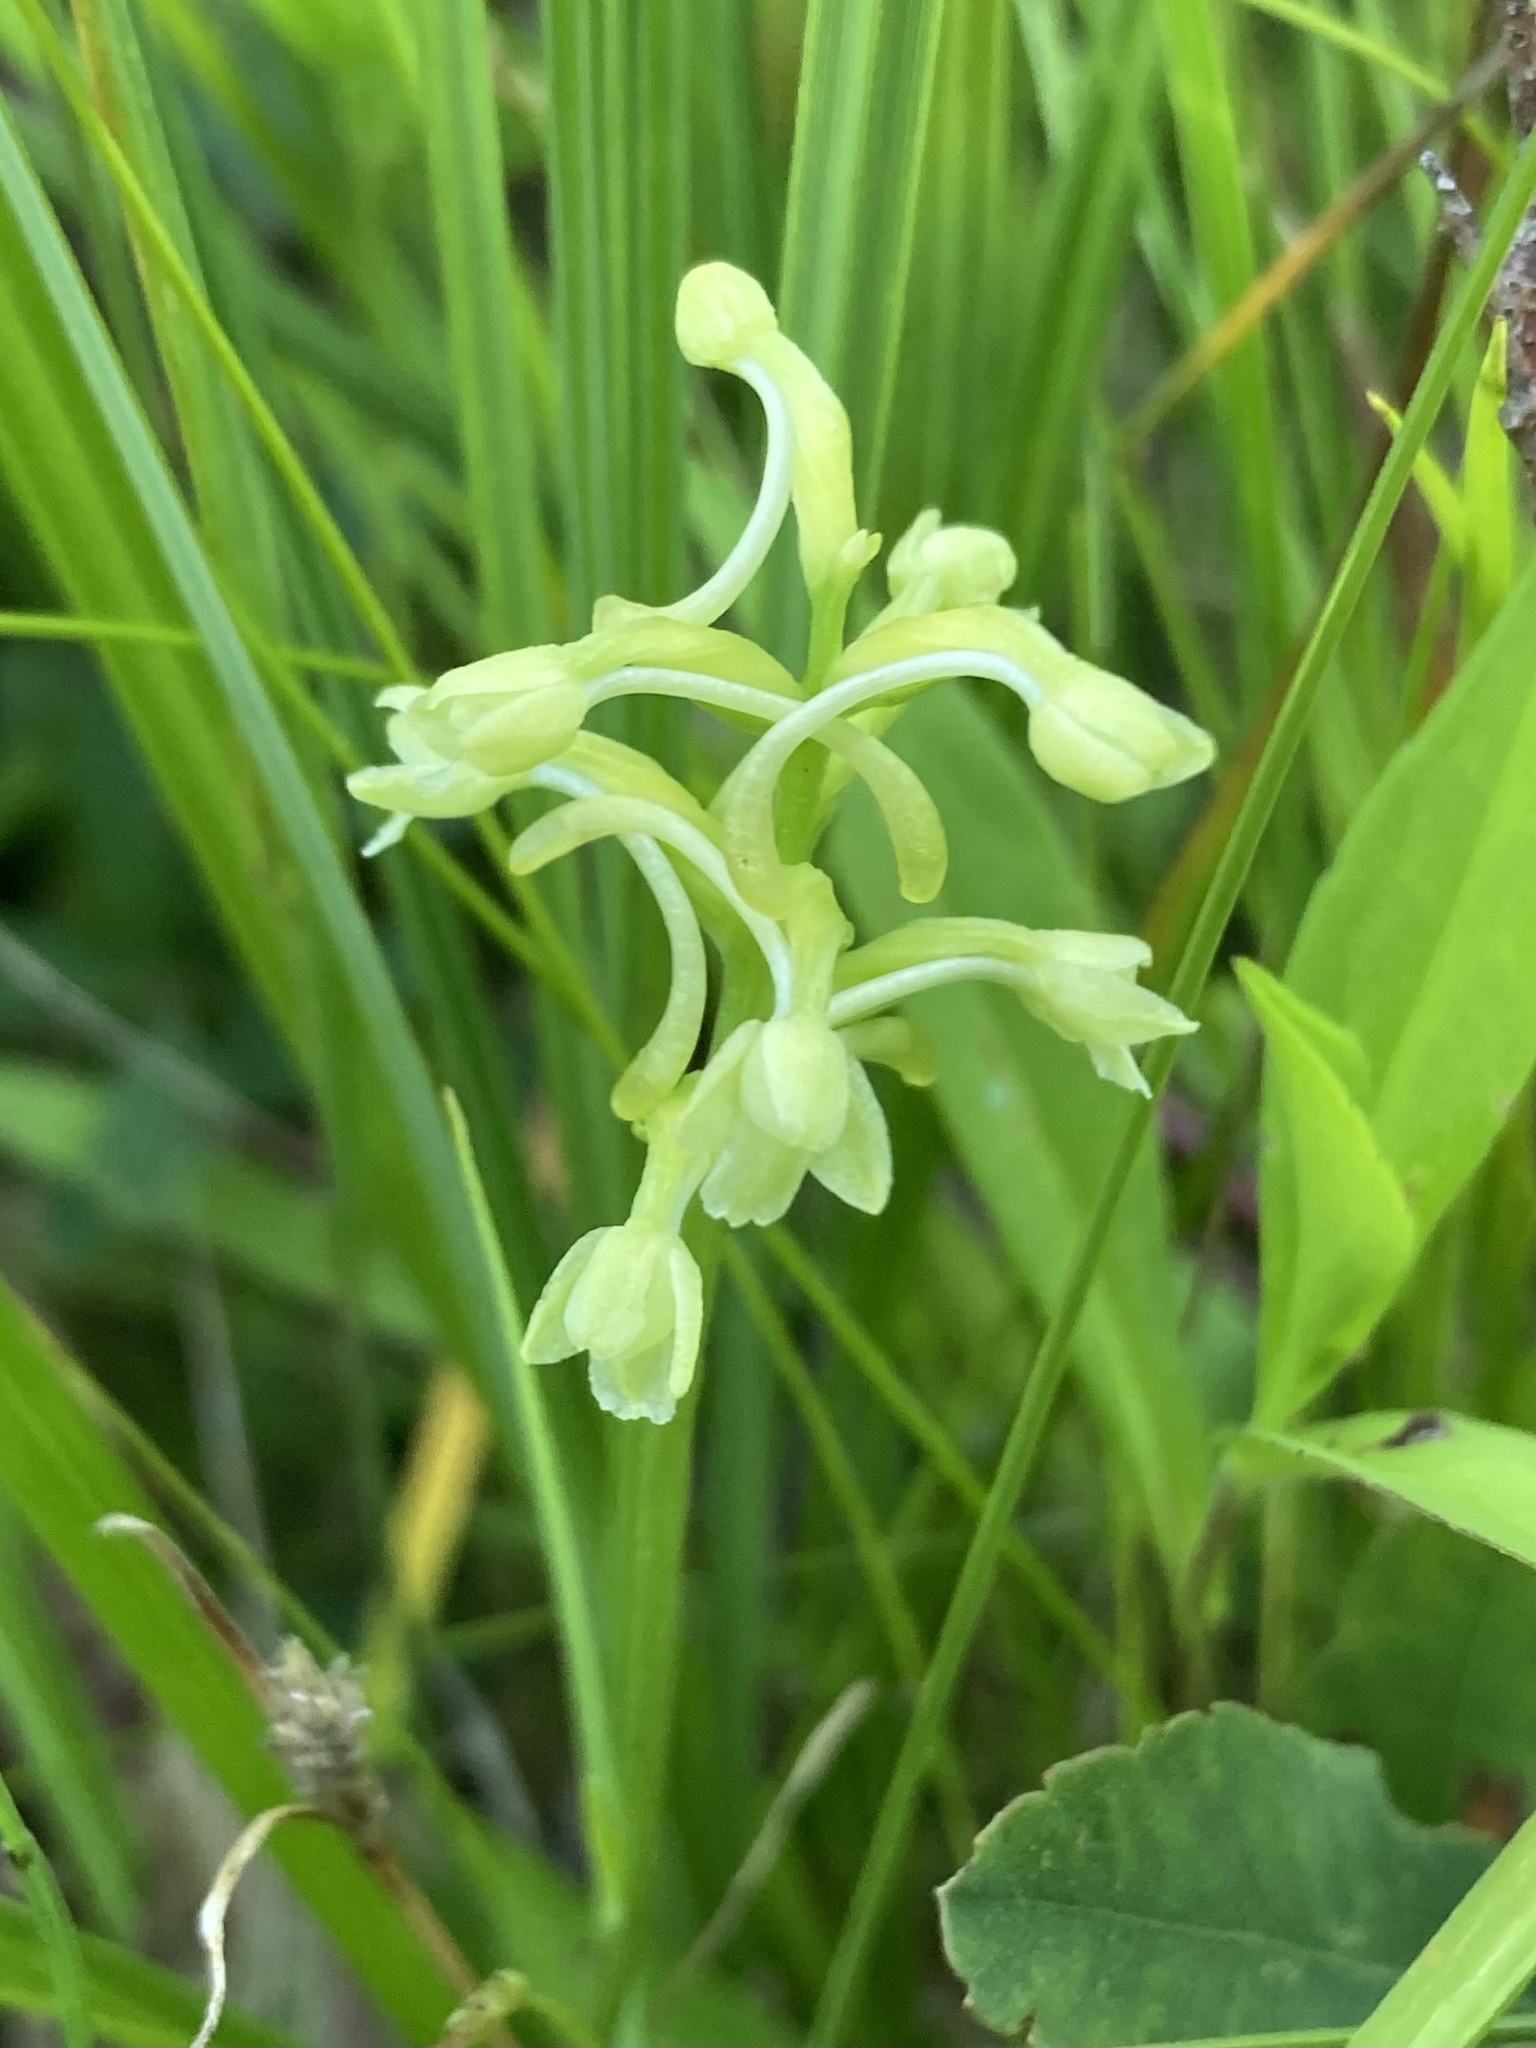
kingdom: Plantae
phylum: Tracheophyta
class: Liliopsida
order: Asparagales
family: Orchidaceae
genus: Platanthera
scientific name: Platanthera clavellata
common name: Club-spur orchid
